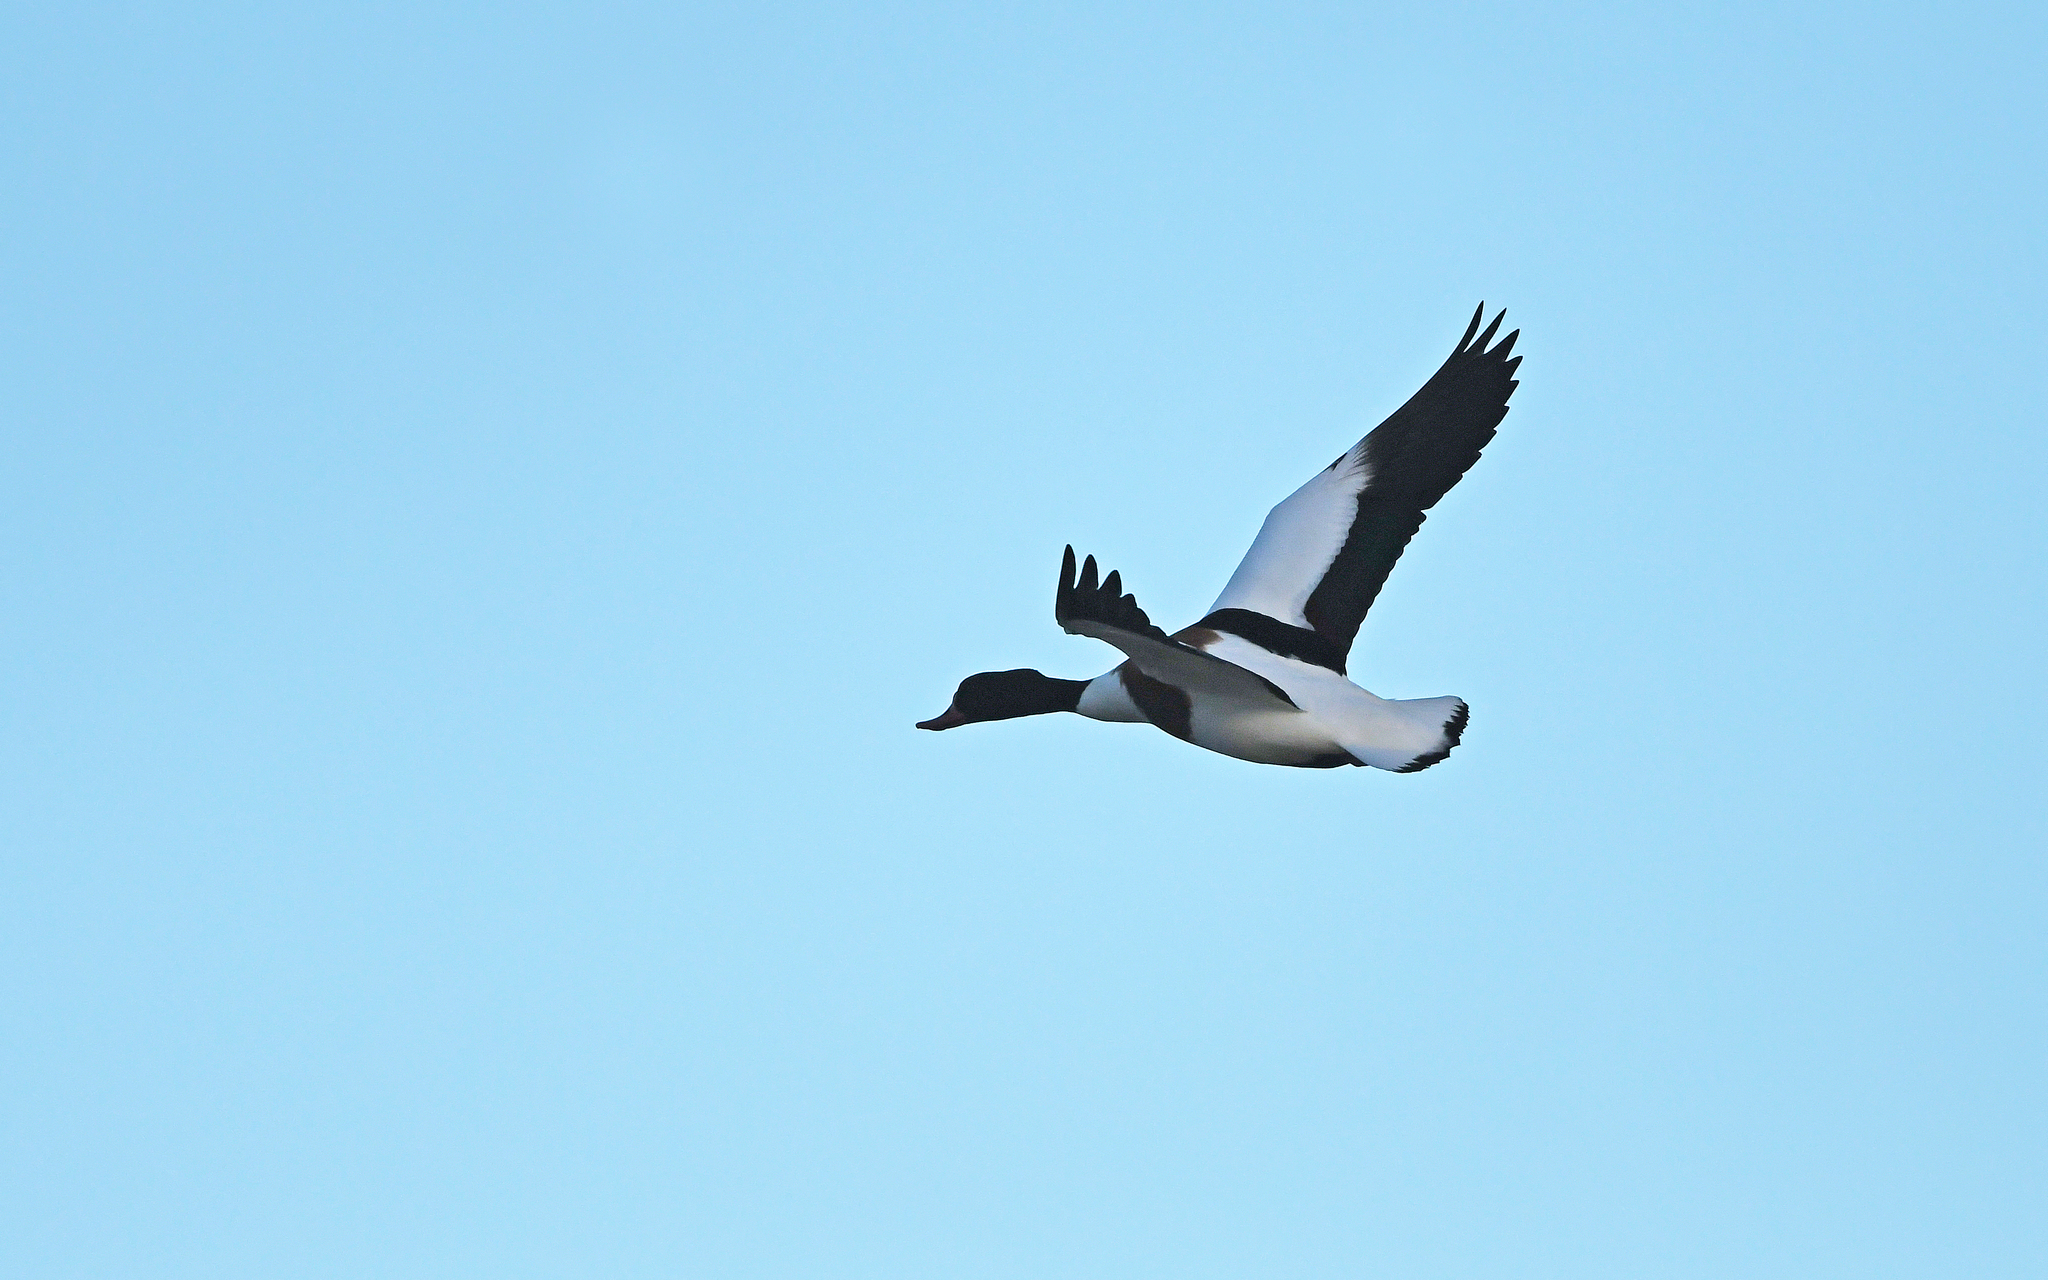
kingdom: Animalia
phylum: Chordata
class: Aves
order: Anseriformes
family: Anatidae
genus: Tadorna
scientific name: Tadorna tadorna
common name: Common shelduck
